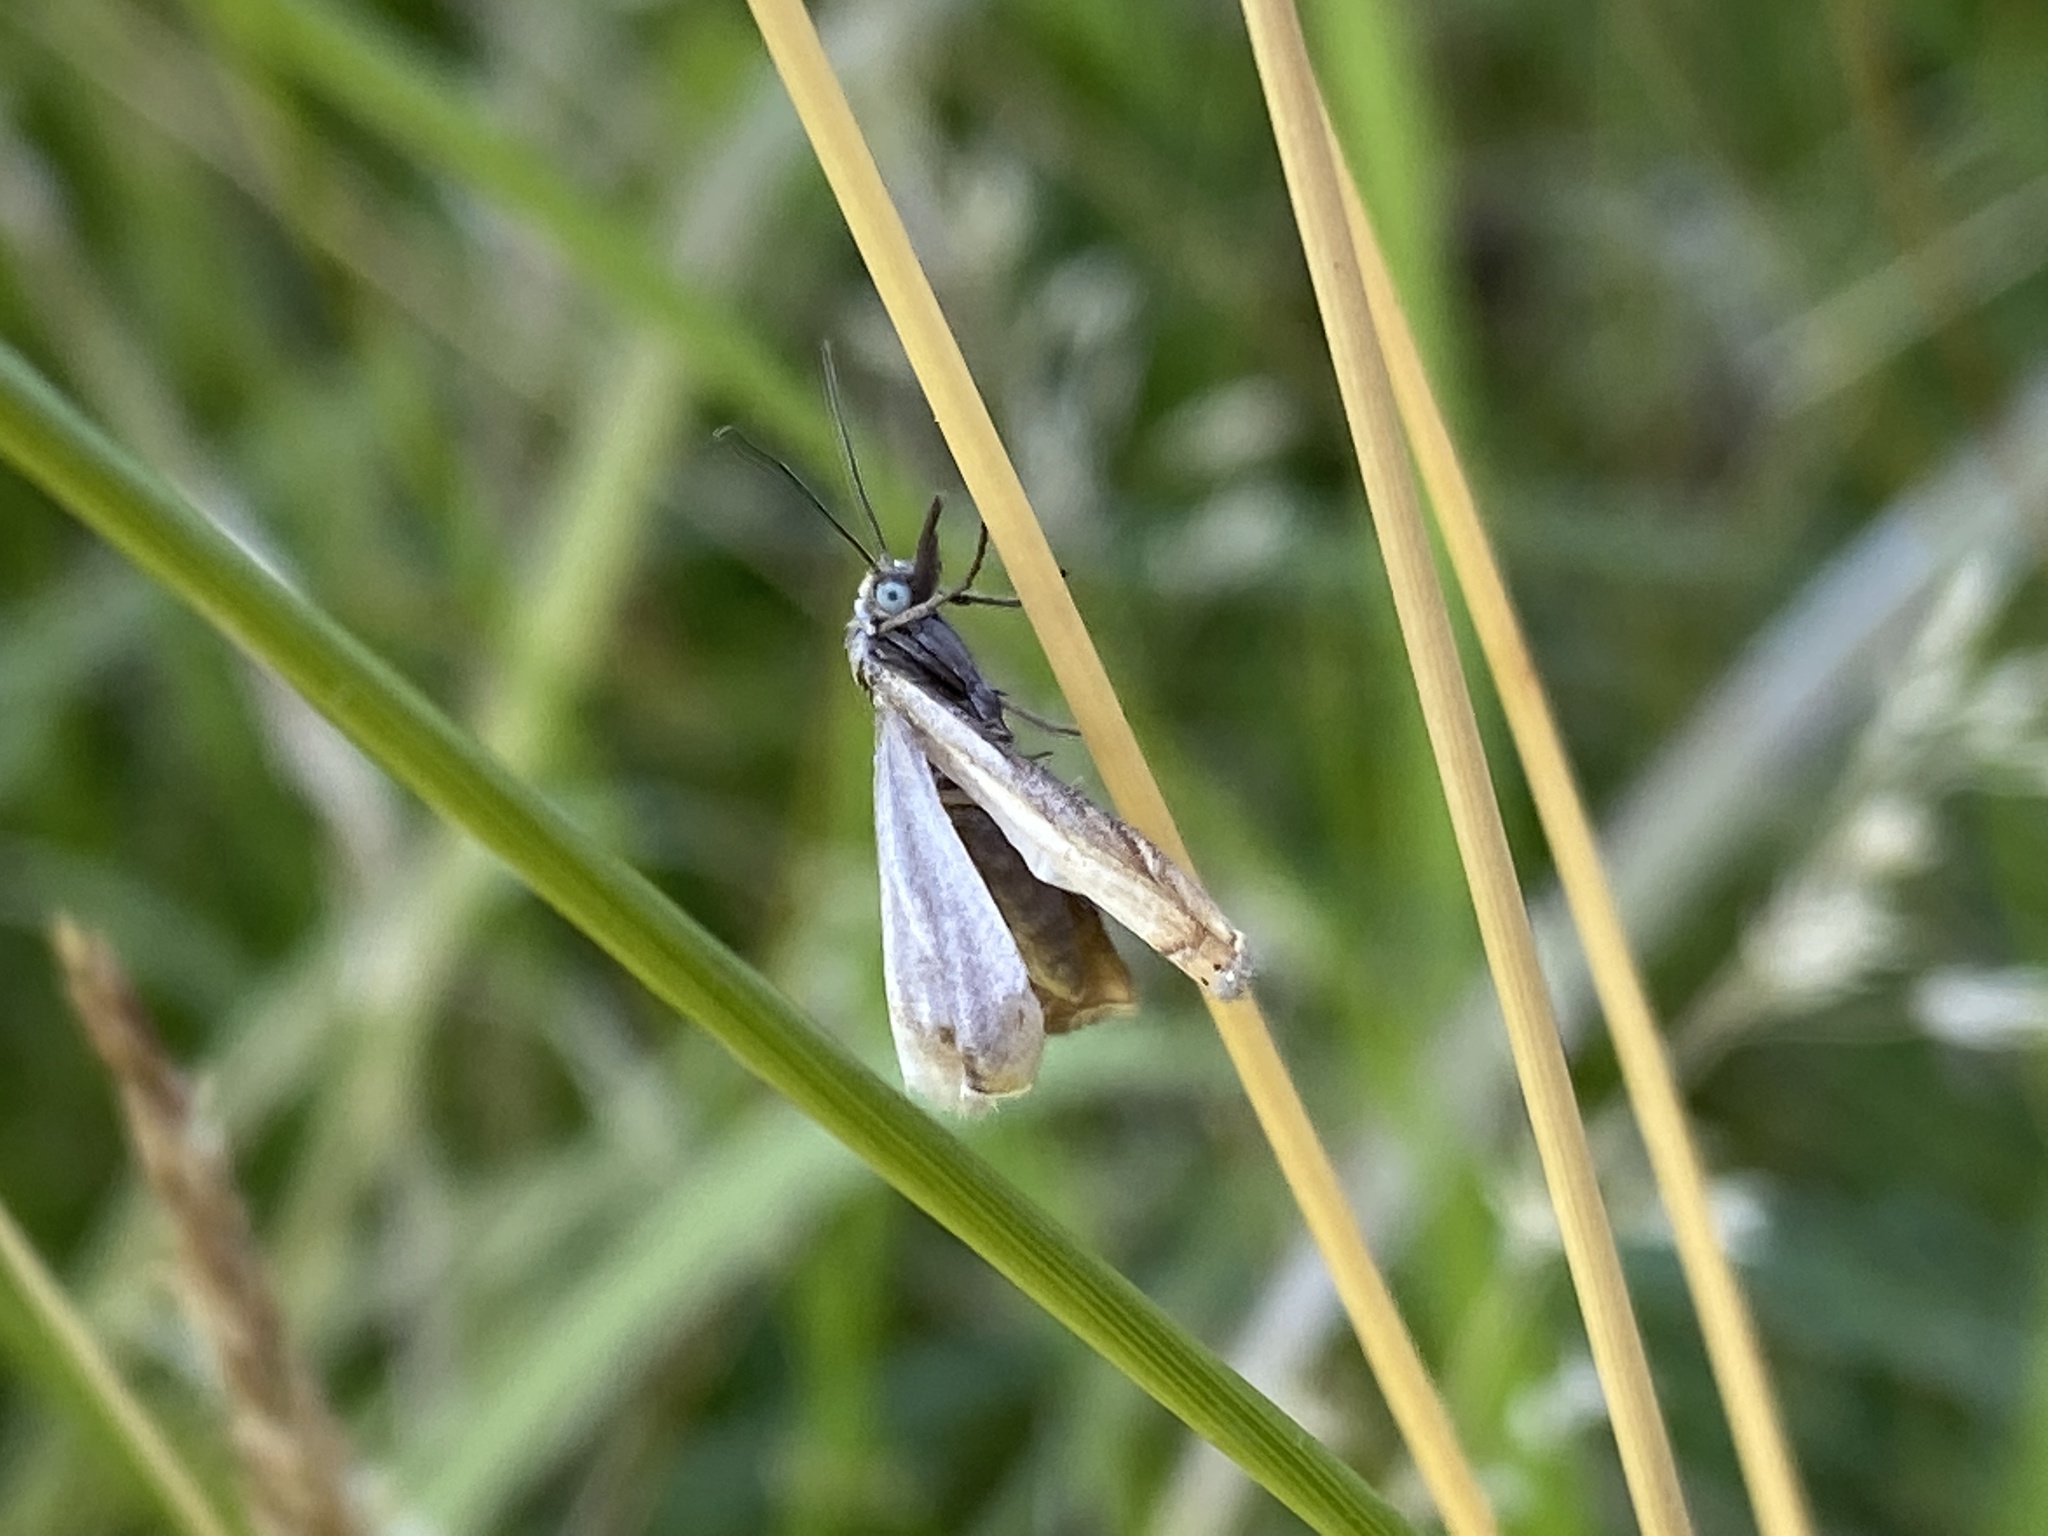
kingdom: Animalia
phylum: Arthropoda
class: Insecta
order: Lepidoptera
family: Crambidae
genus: Chrysoteuchia
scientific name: Chrysoteuchia culmella
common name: Garden grass-veneer
